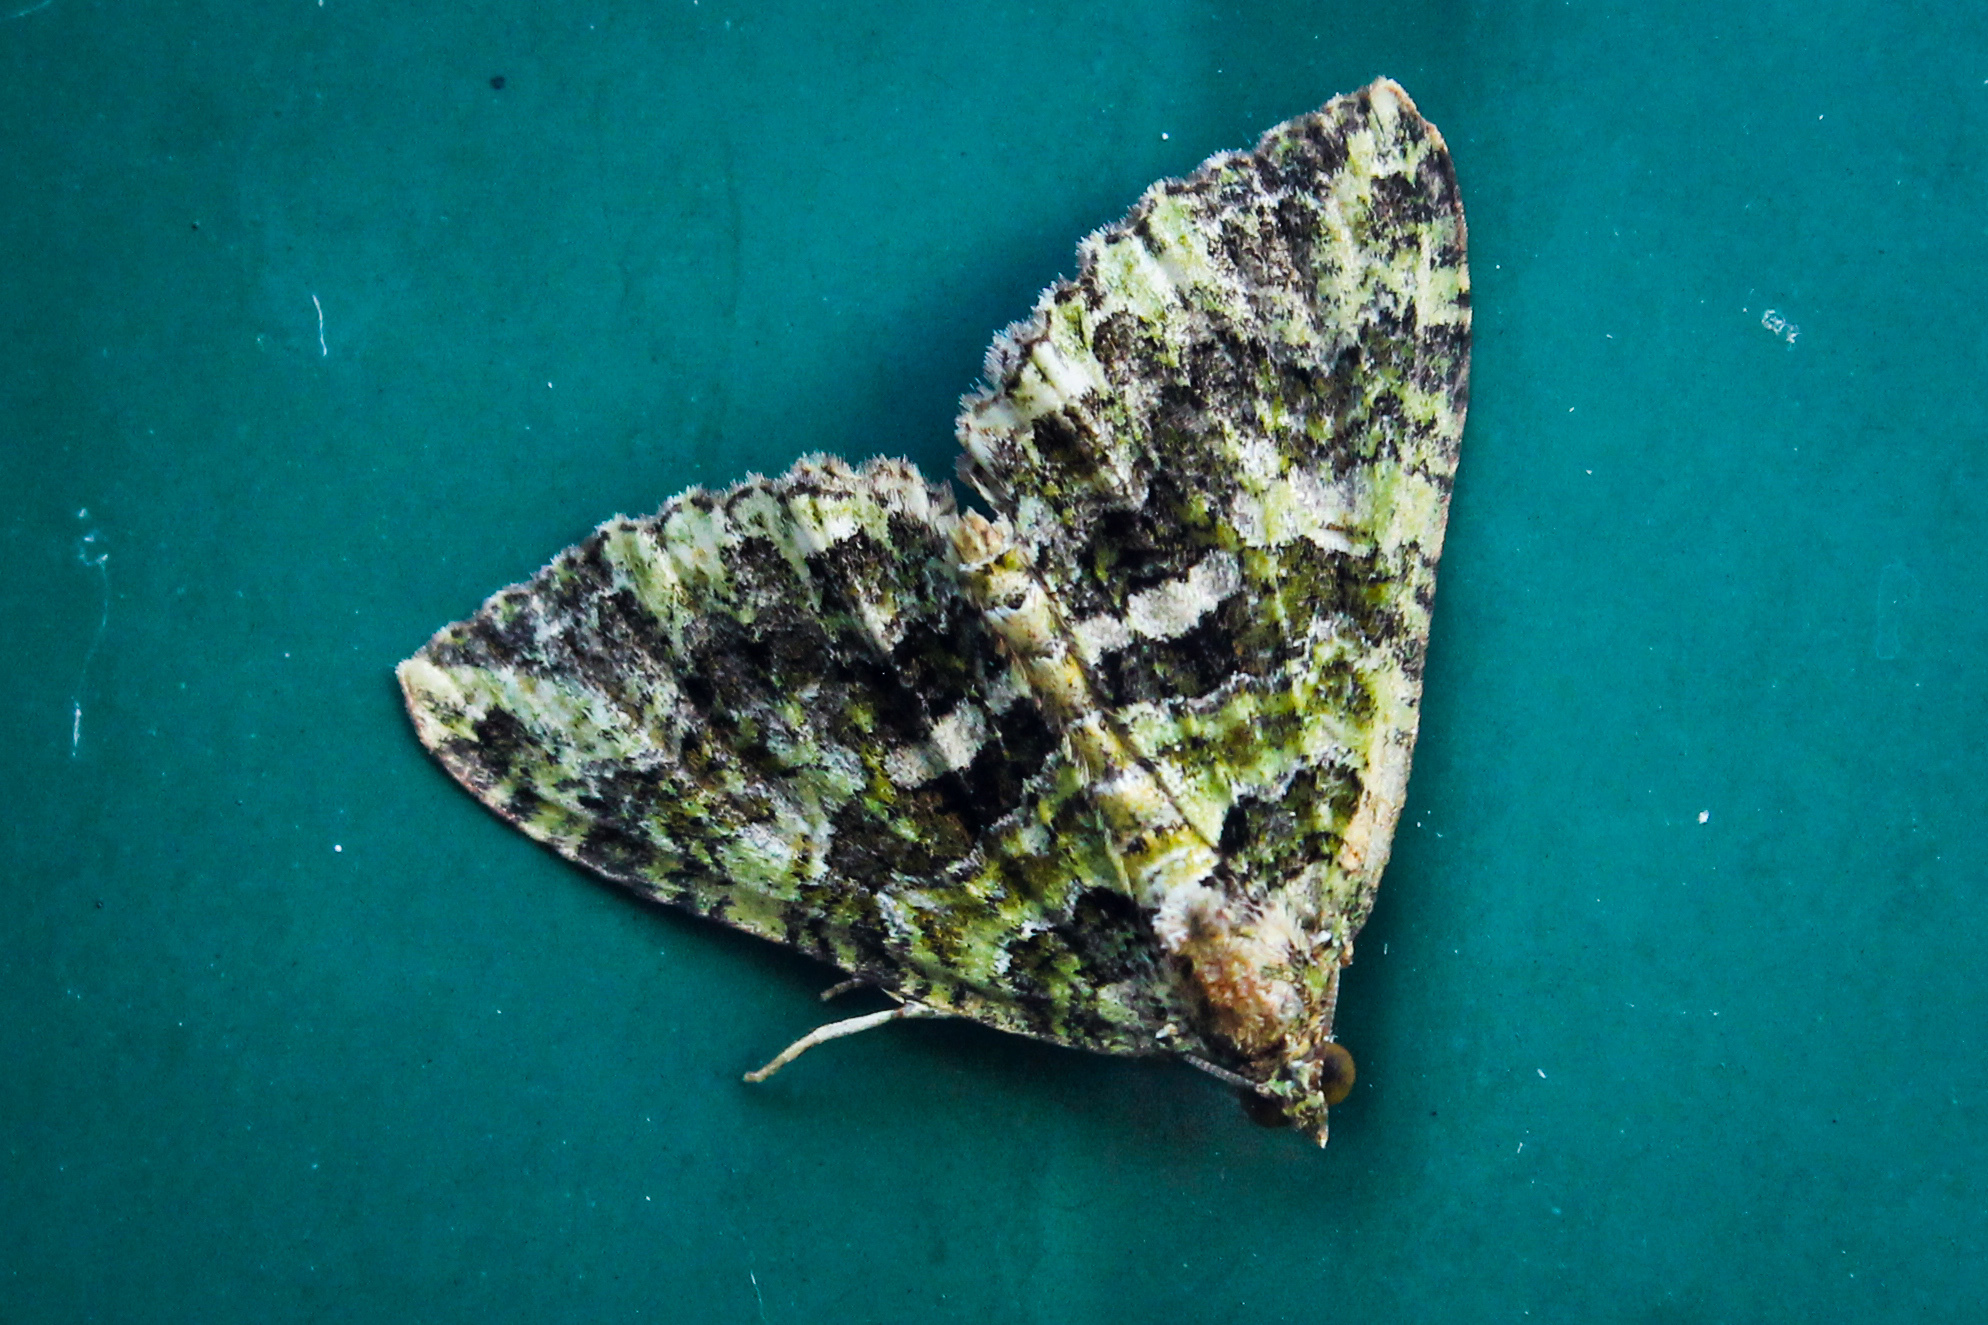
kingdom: Animalia
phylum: Arthropoda
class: Insecta
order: Lepidoptera
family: Geometridae
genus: Austrocidaria
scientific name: Austrocidaria similata
